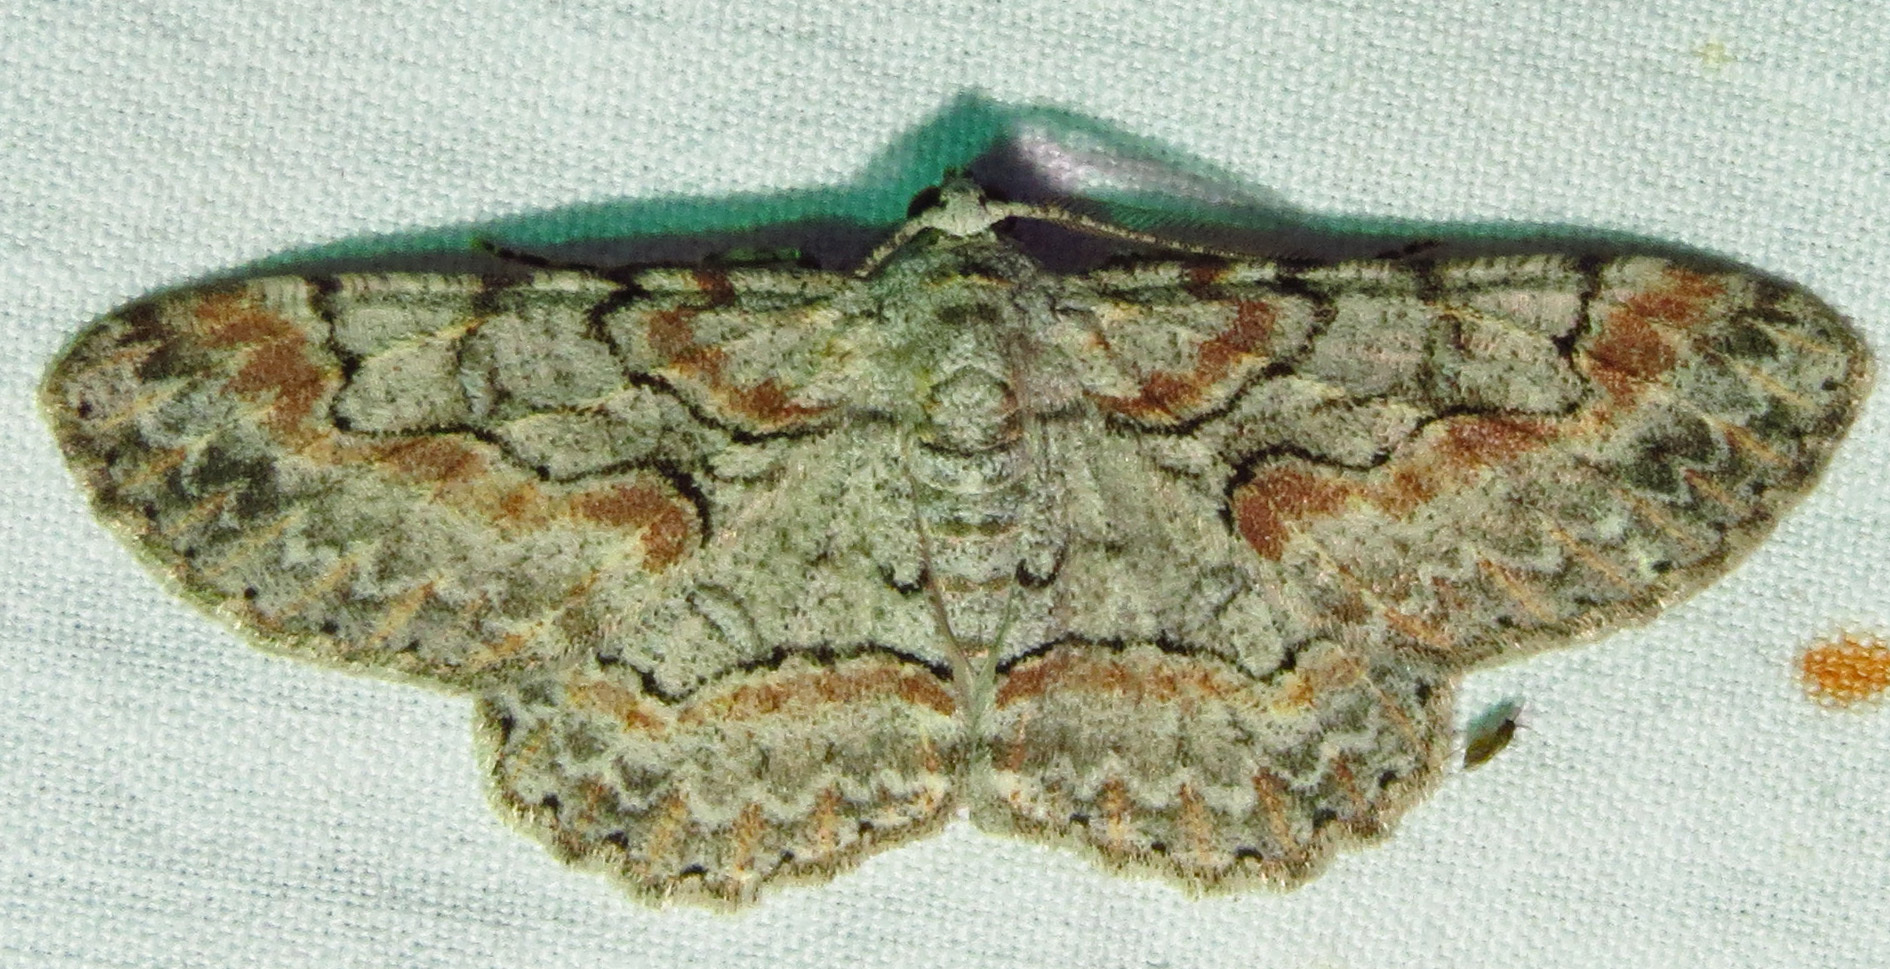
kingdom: Animalia
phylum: Arthropoda
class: Insecta
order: Lepidoptera
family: Geometridae
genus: Iridopsis
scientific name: Iridopsis defectaria
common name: Brown-shaded gray
